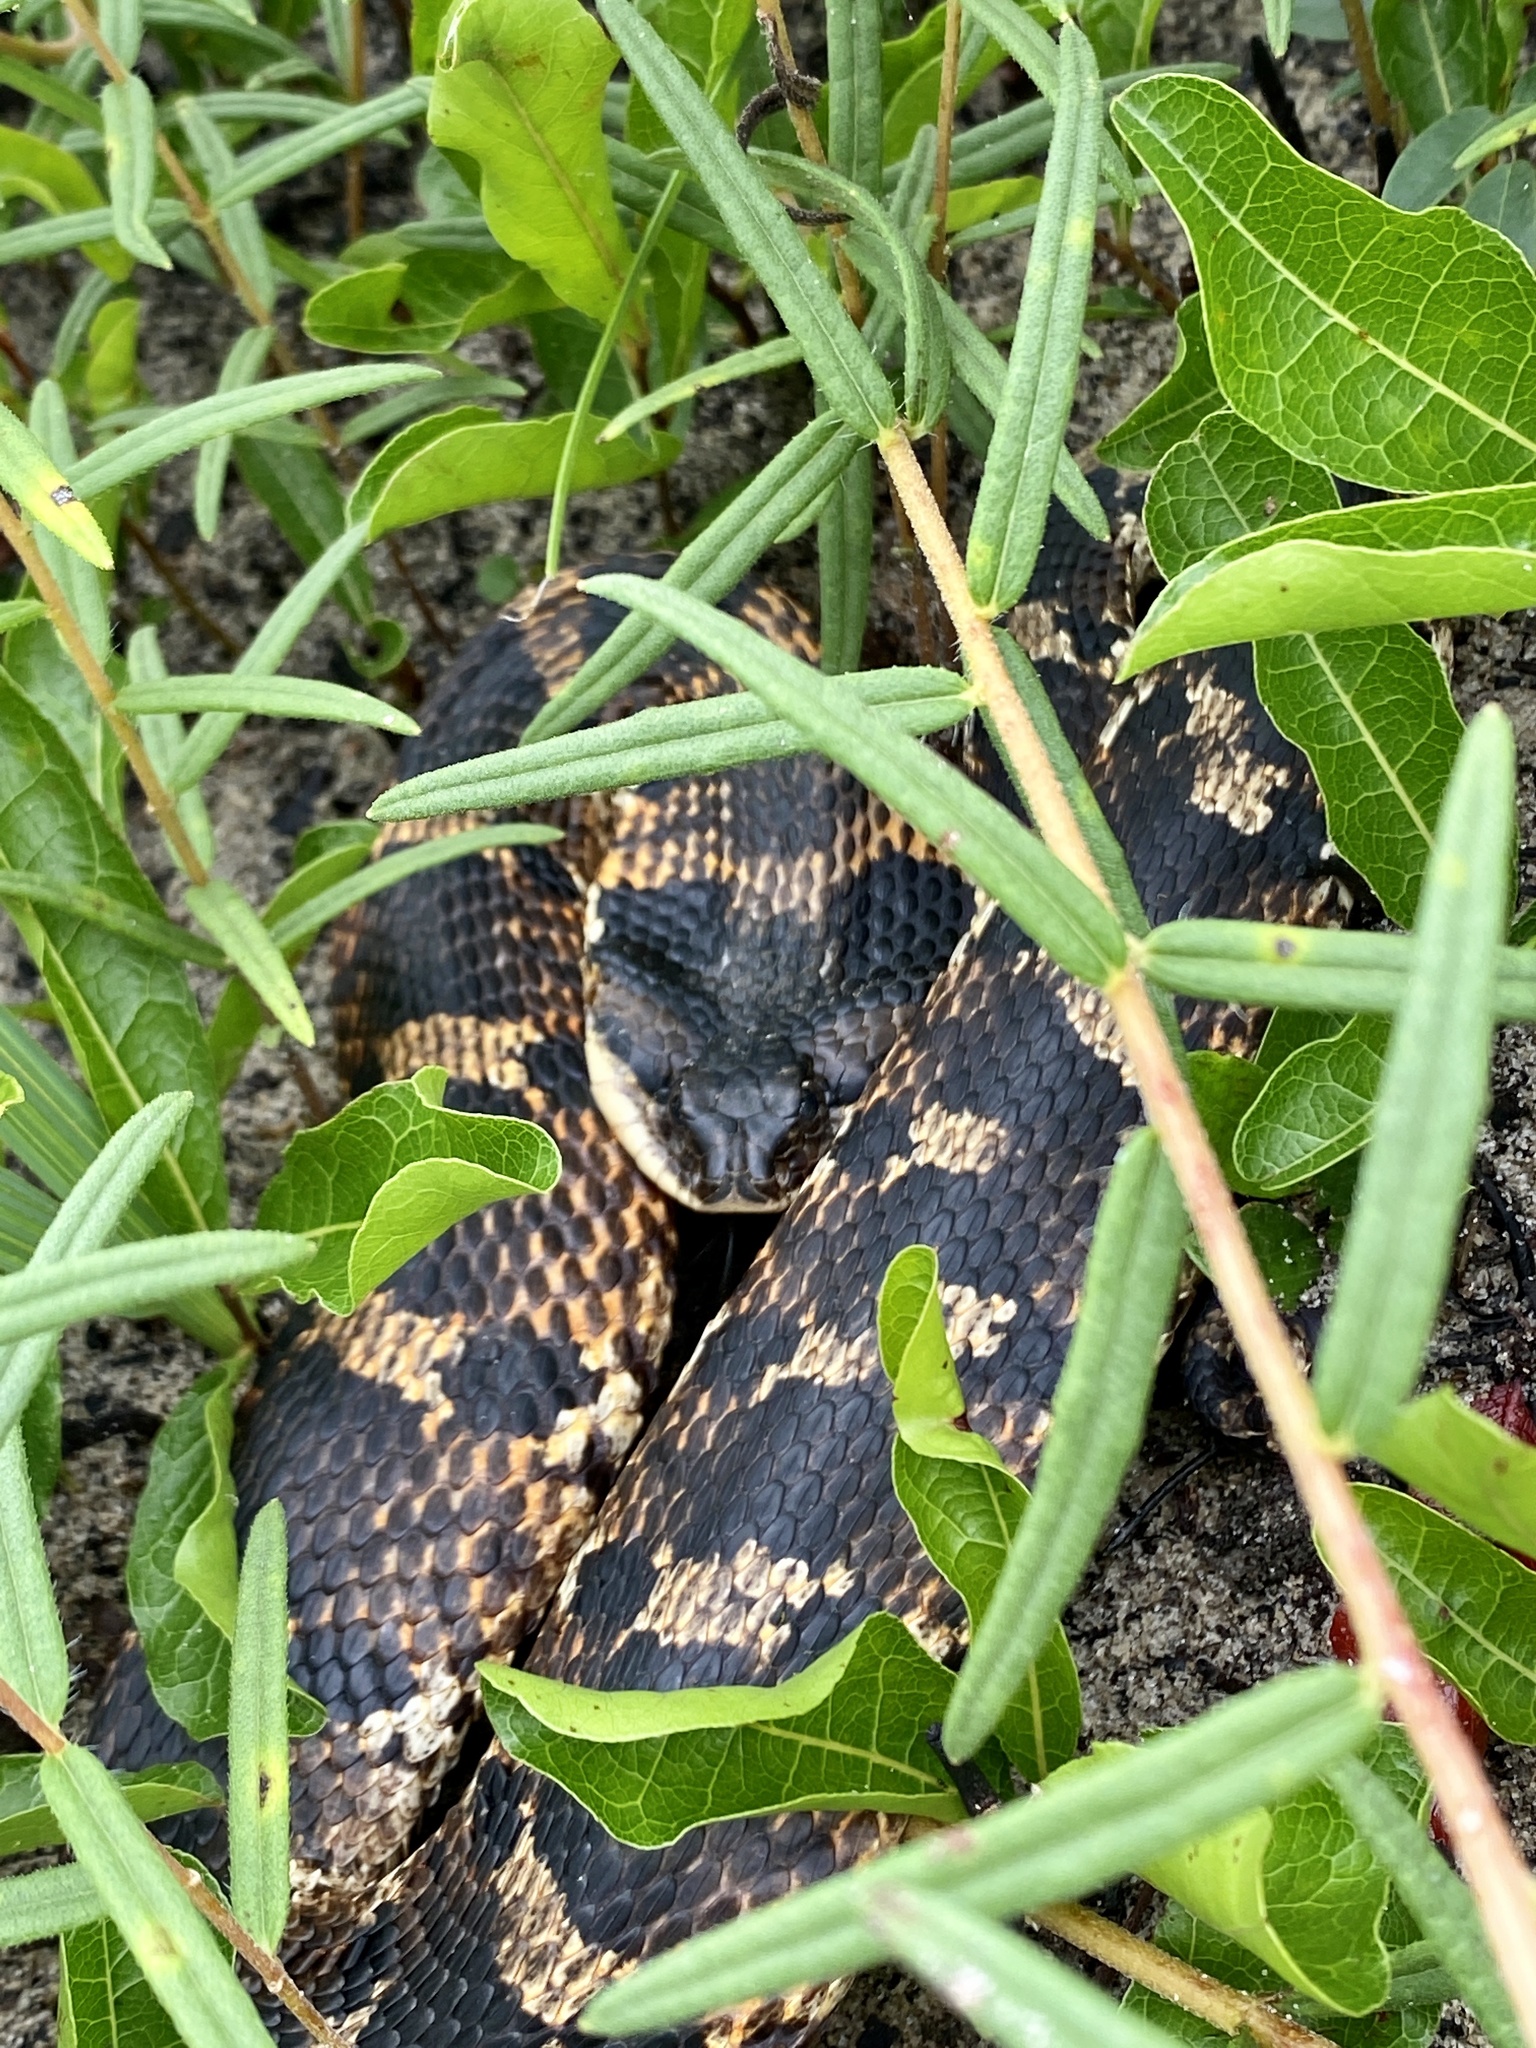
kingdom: Animalia
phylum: Chordata
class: Squamata
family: Colubridae
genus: Heterodon
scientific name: Heterodon platirhinos
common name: Eastern hognose snake
